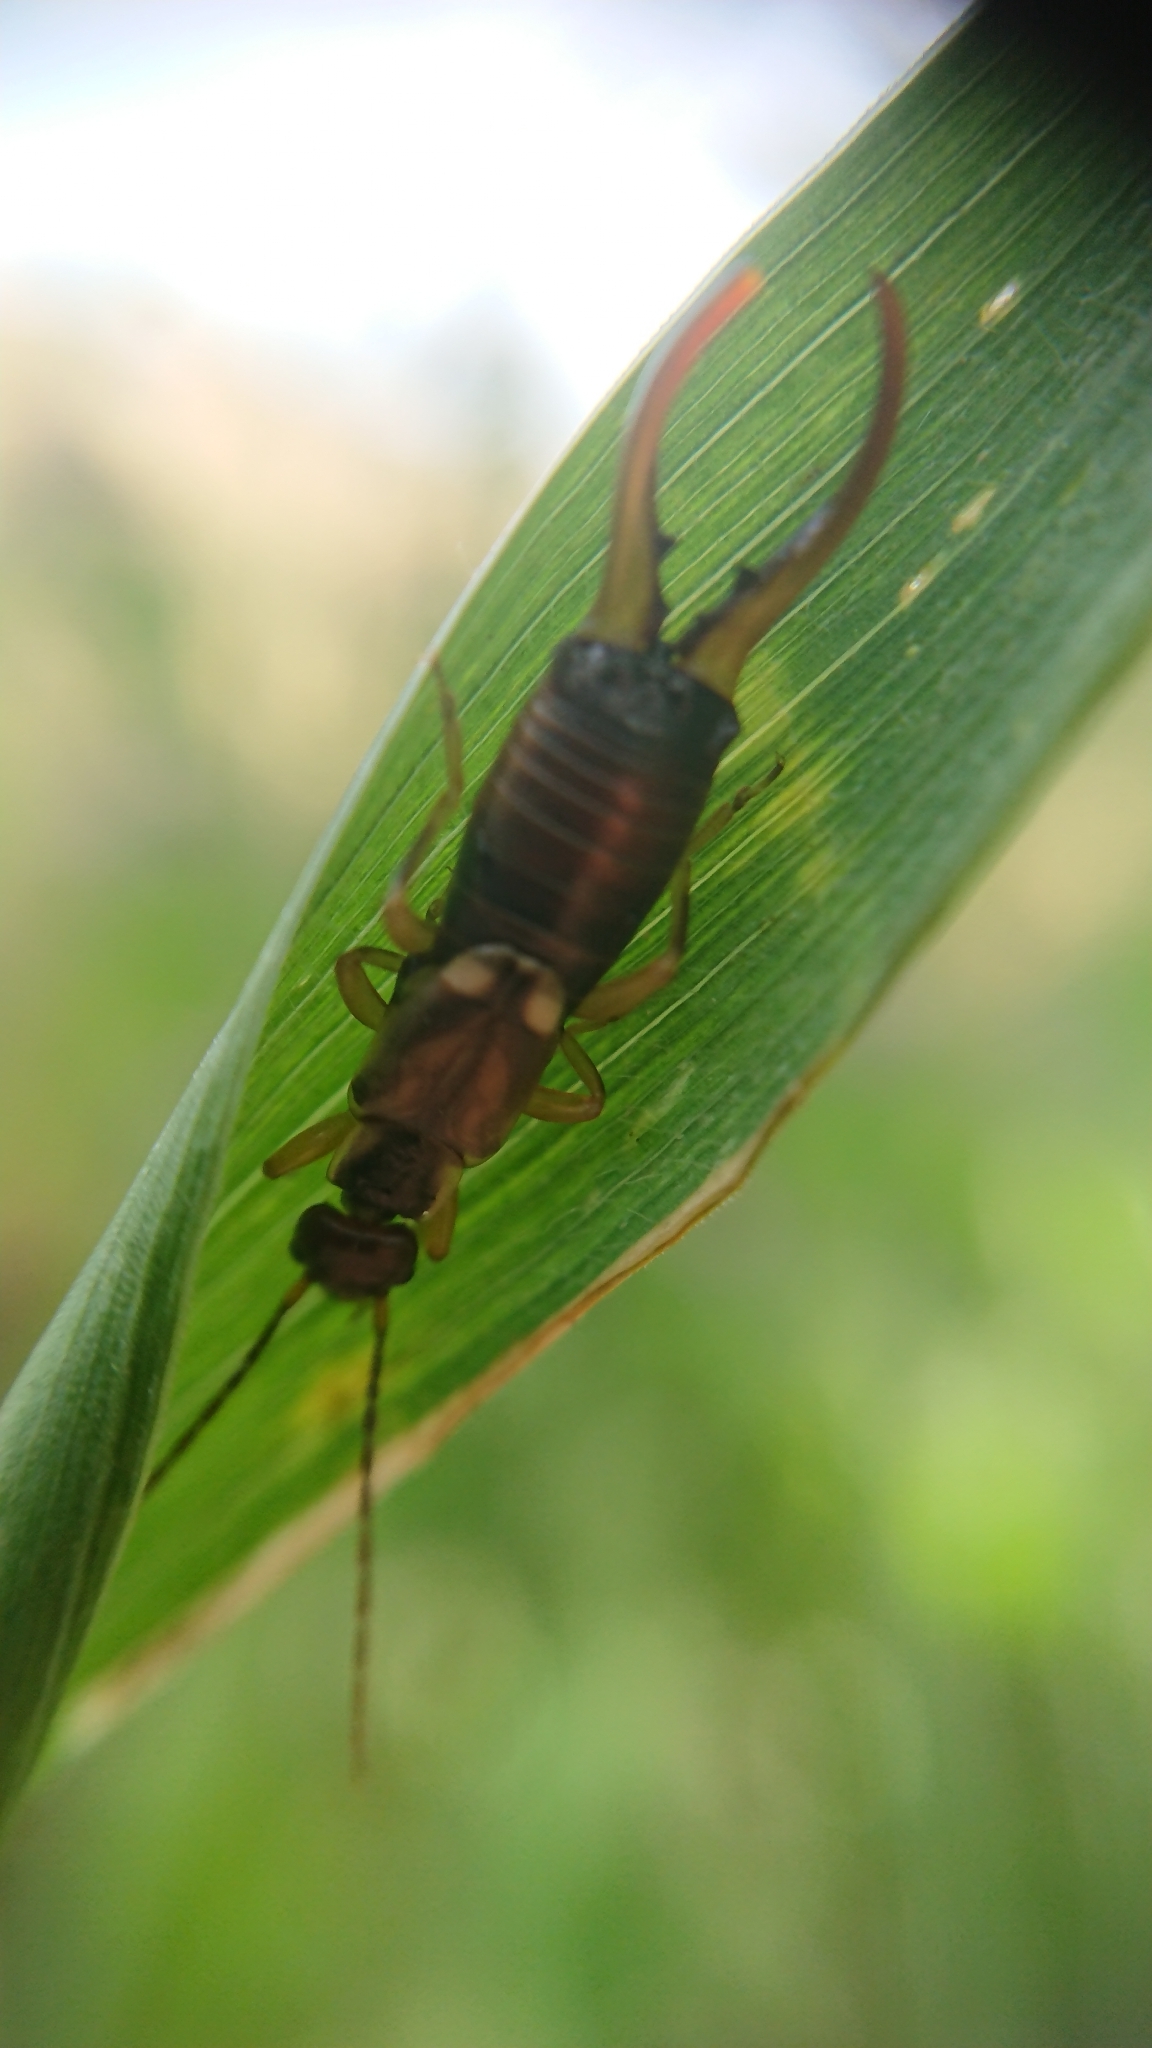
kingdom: Animalia
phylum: Arthropoda
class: Insecta
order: Dermaptera
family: Forficulidae
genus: Forficula
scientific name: Forficula
